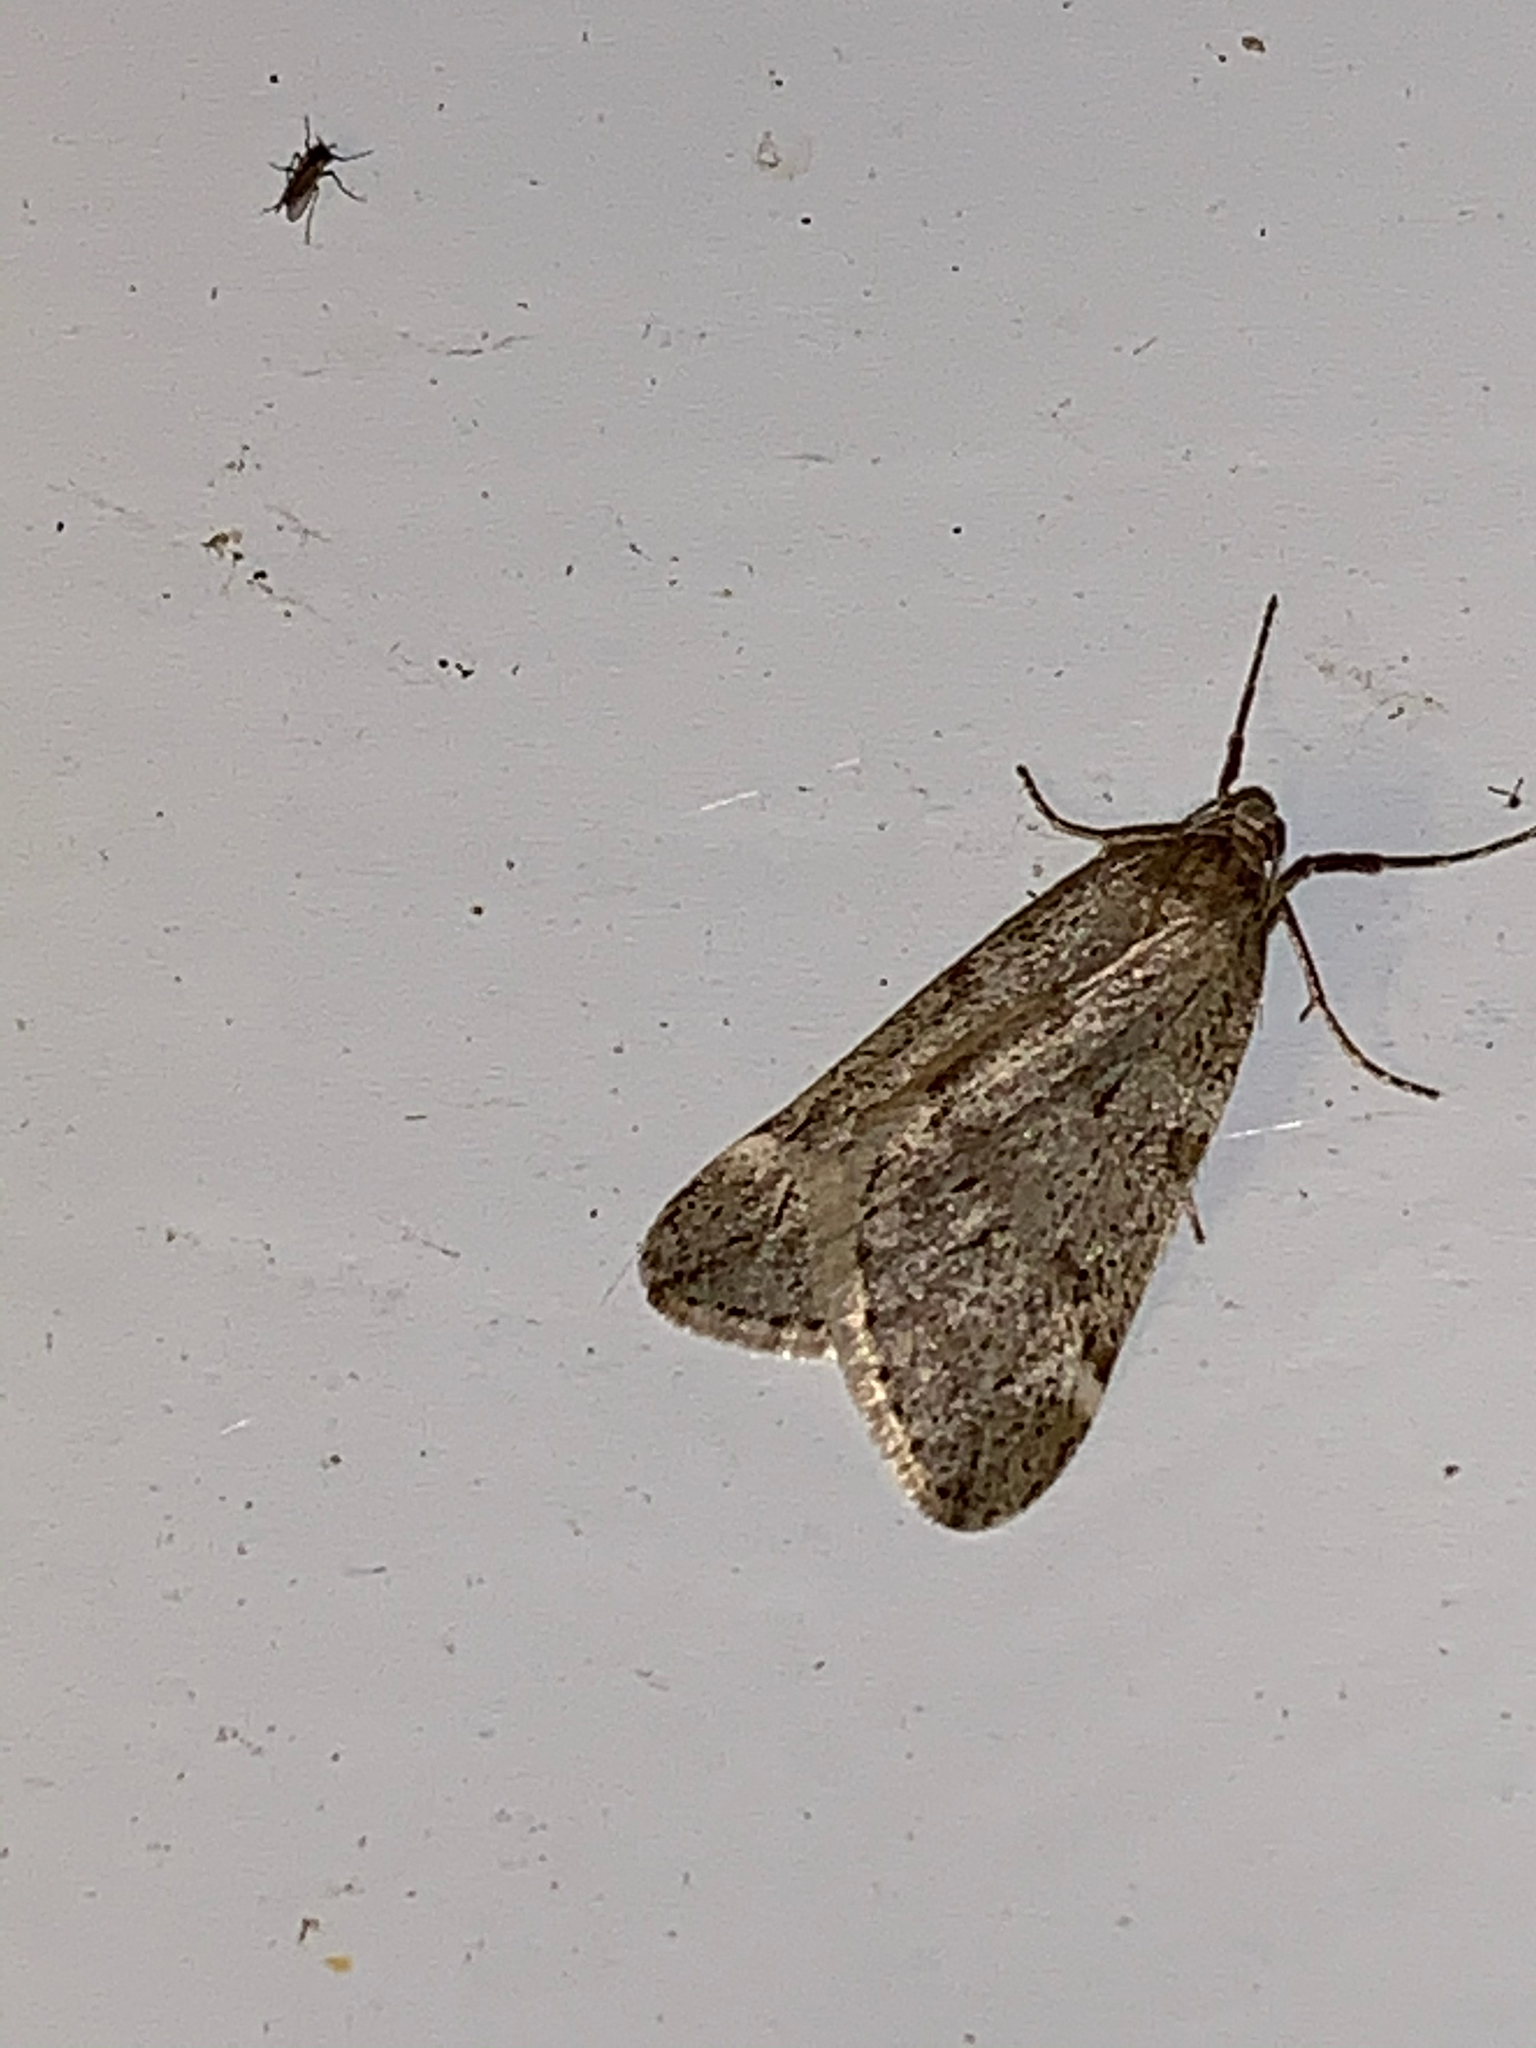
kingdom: Animalia
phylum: Arthropoda
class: Insecta
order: Lepidoptera
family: Geometridae
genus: Alsophila
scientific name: Alsophila pometaria
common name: Fall cankerworm
